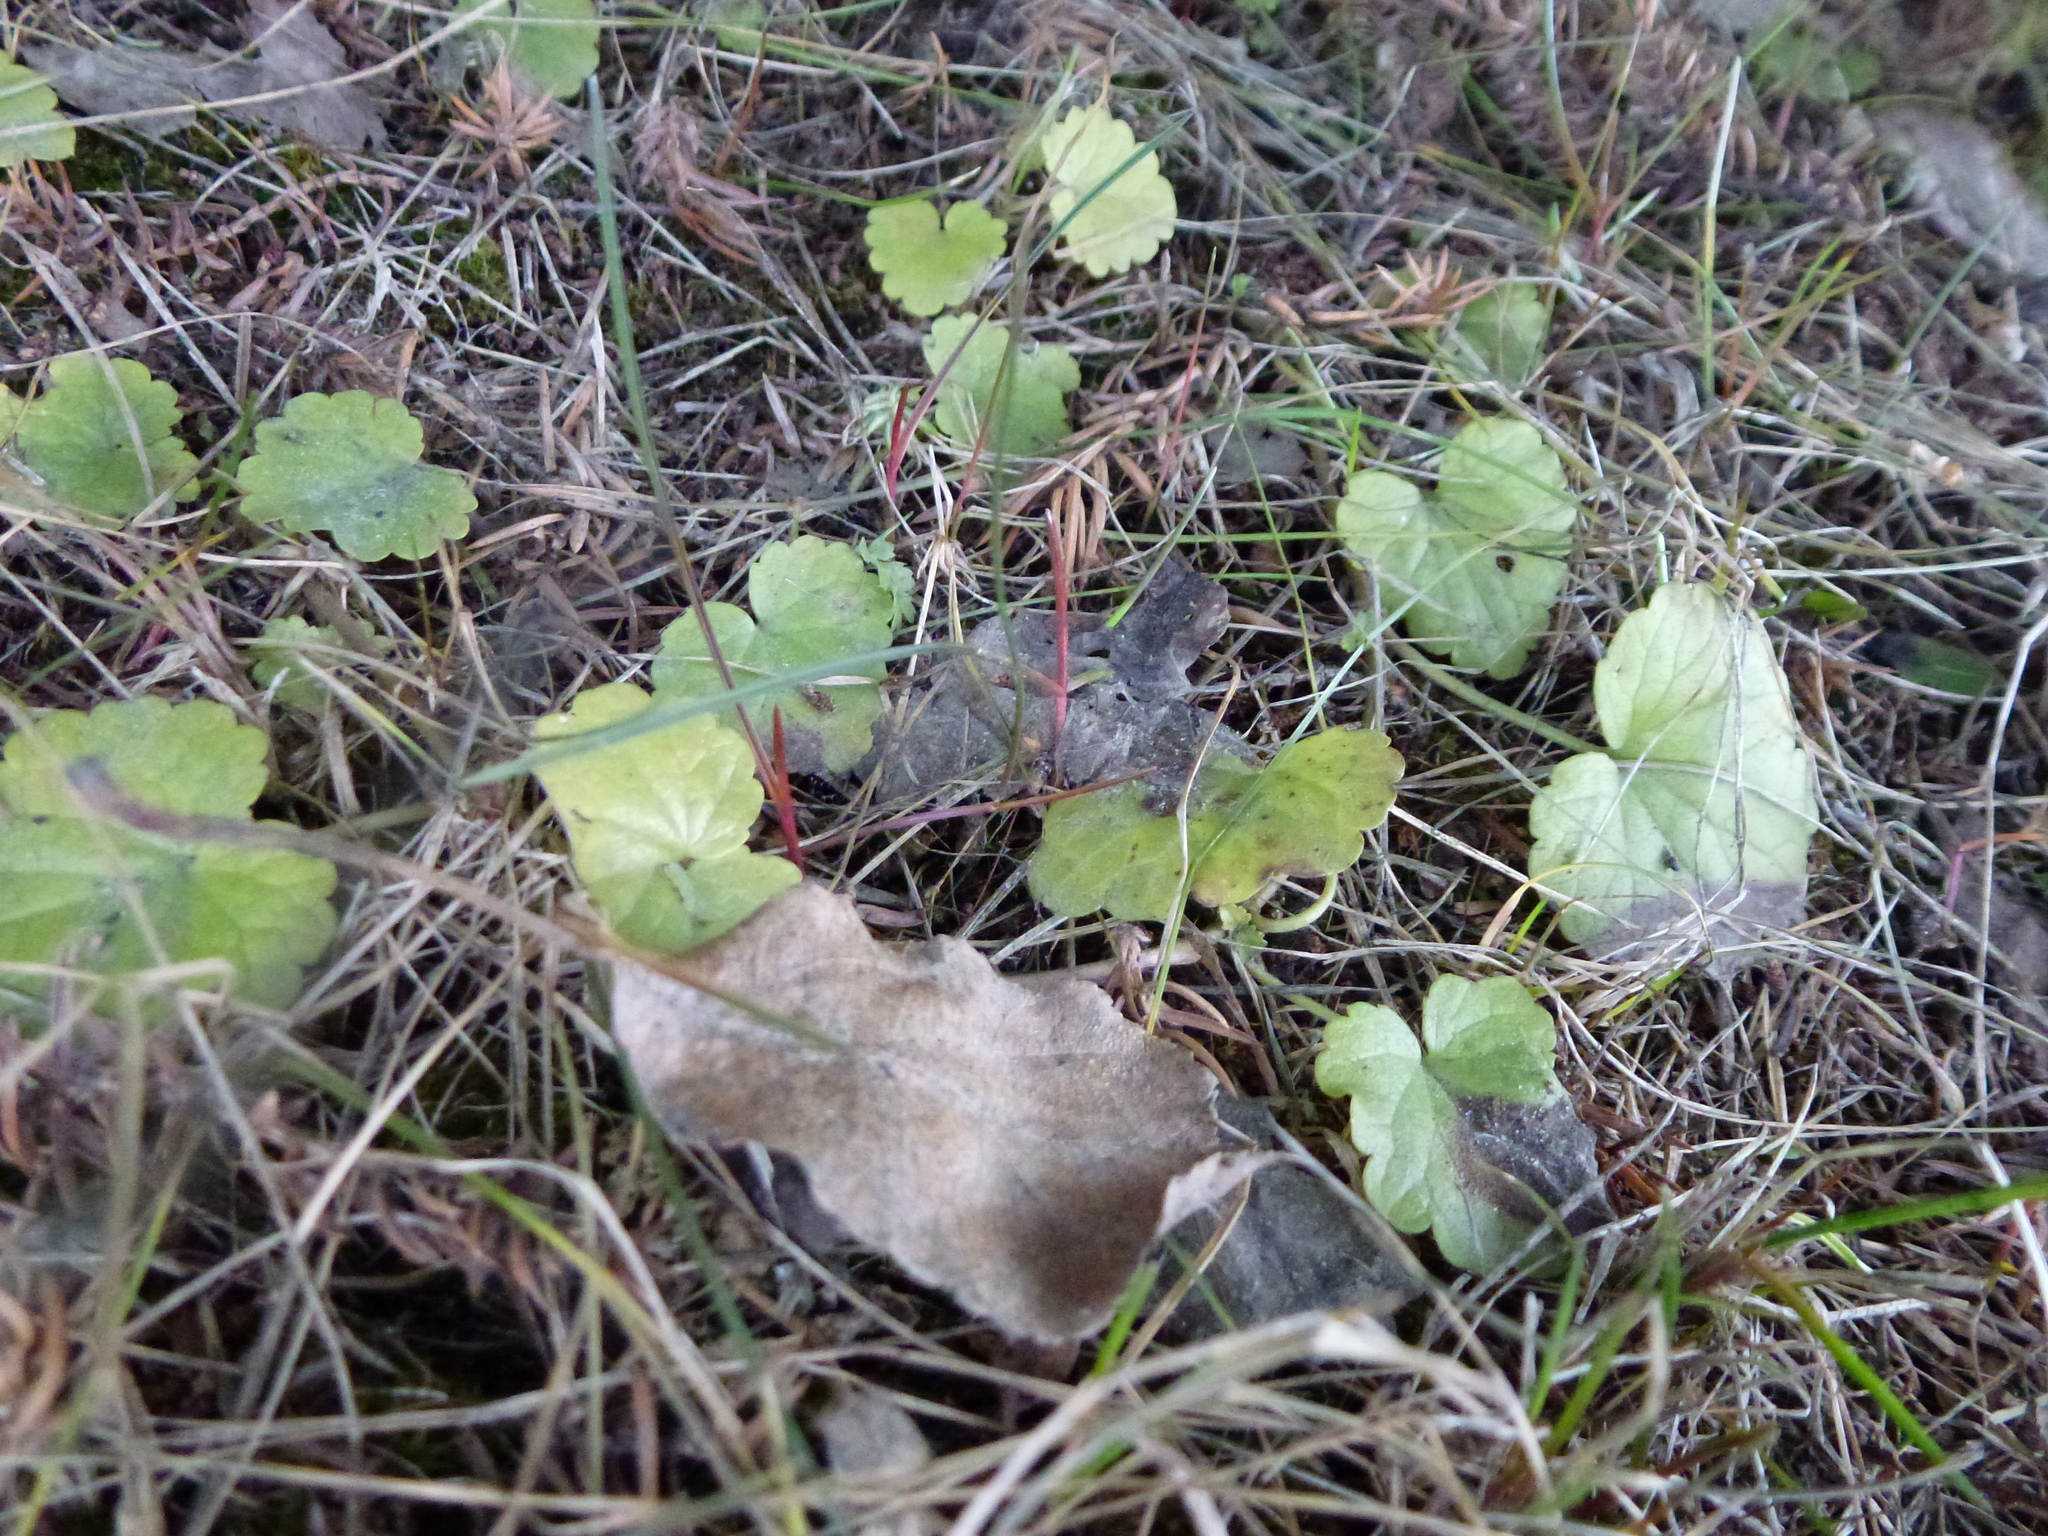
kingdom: Plantae
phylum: Tracheophyta
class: Magnoliopsida
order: Lamiales
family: Lamiaceae
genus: Glechoma
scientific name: Glechoma hederacea
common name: Ground ivy
